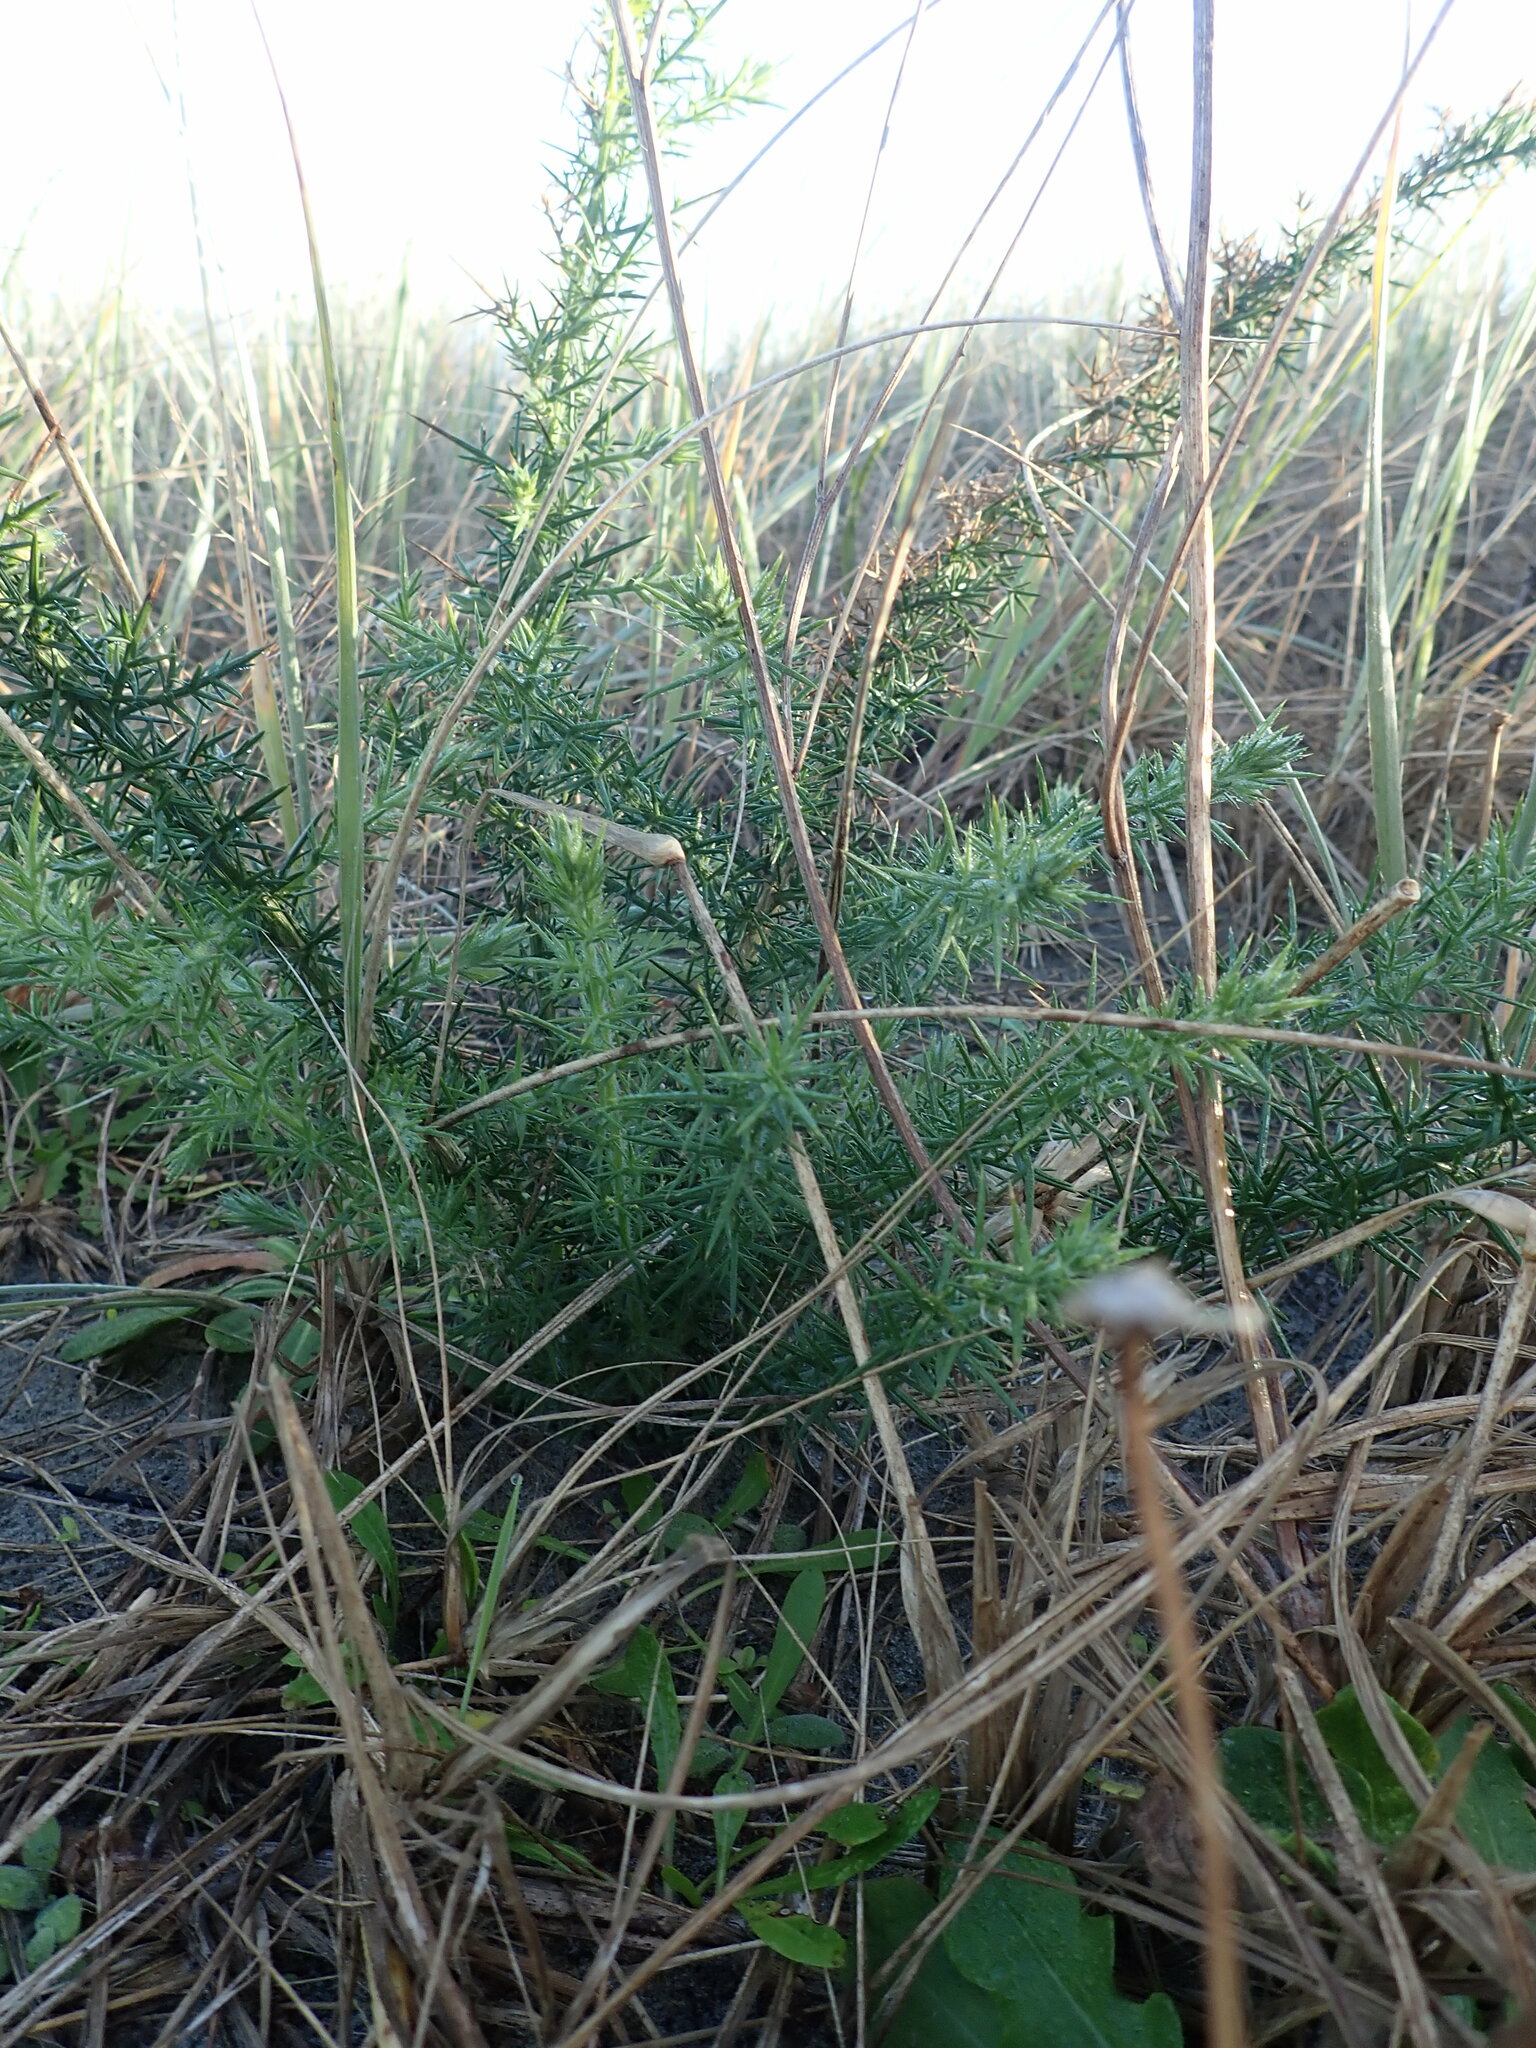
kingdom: Plantae
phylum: Tracheophyta
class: Magnoliopsida
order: Fabales
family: Fabaceae
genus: Ulex
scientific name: Ulex europaeus
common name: Common gorse
